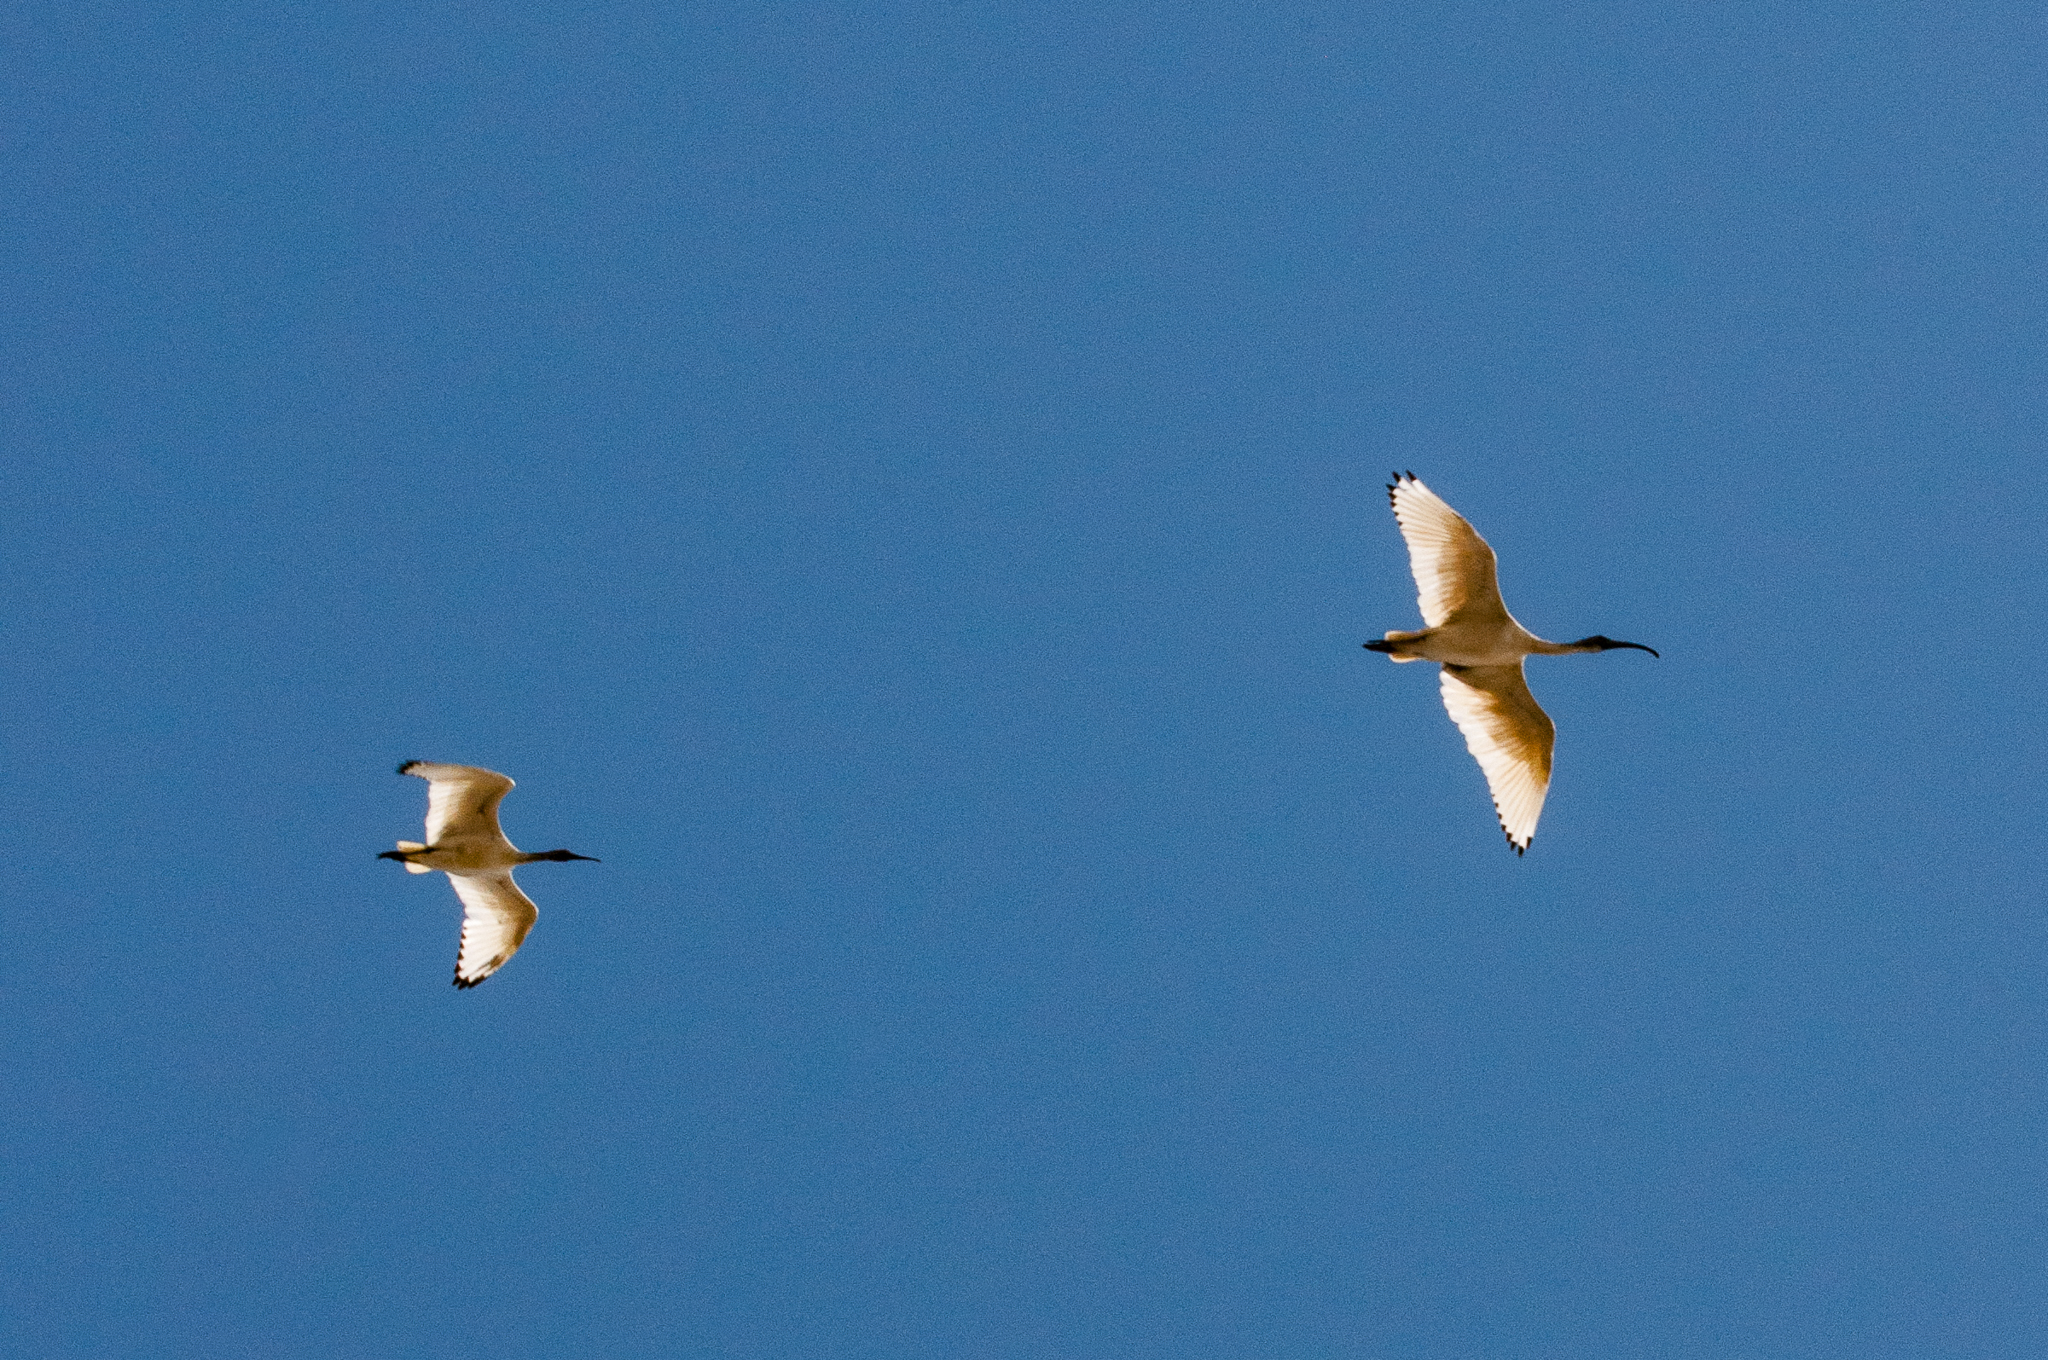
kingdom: Animalia
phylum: Chordata
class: Aves
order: Pelecaniformes
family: Threskiornithidae
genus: Threskiornis
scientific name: Threskiornis molucca
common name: Australian white ibis
